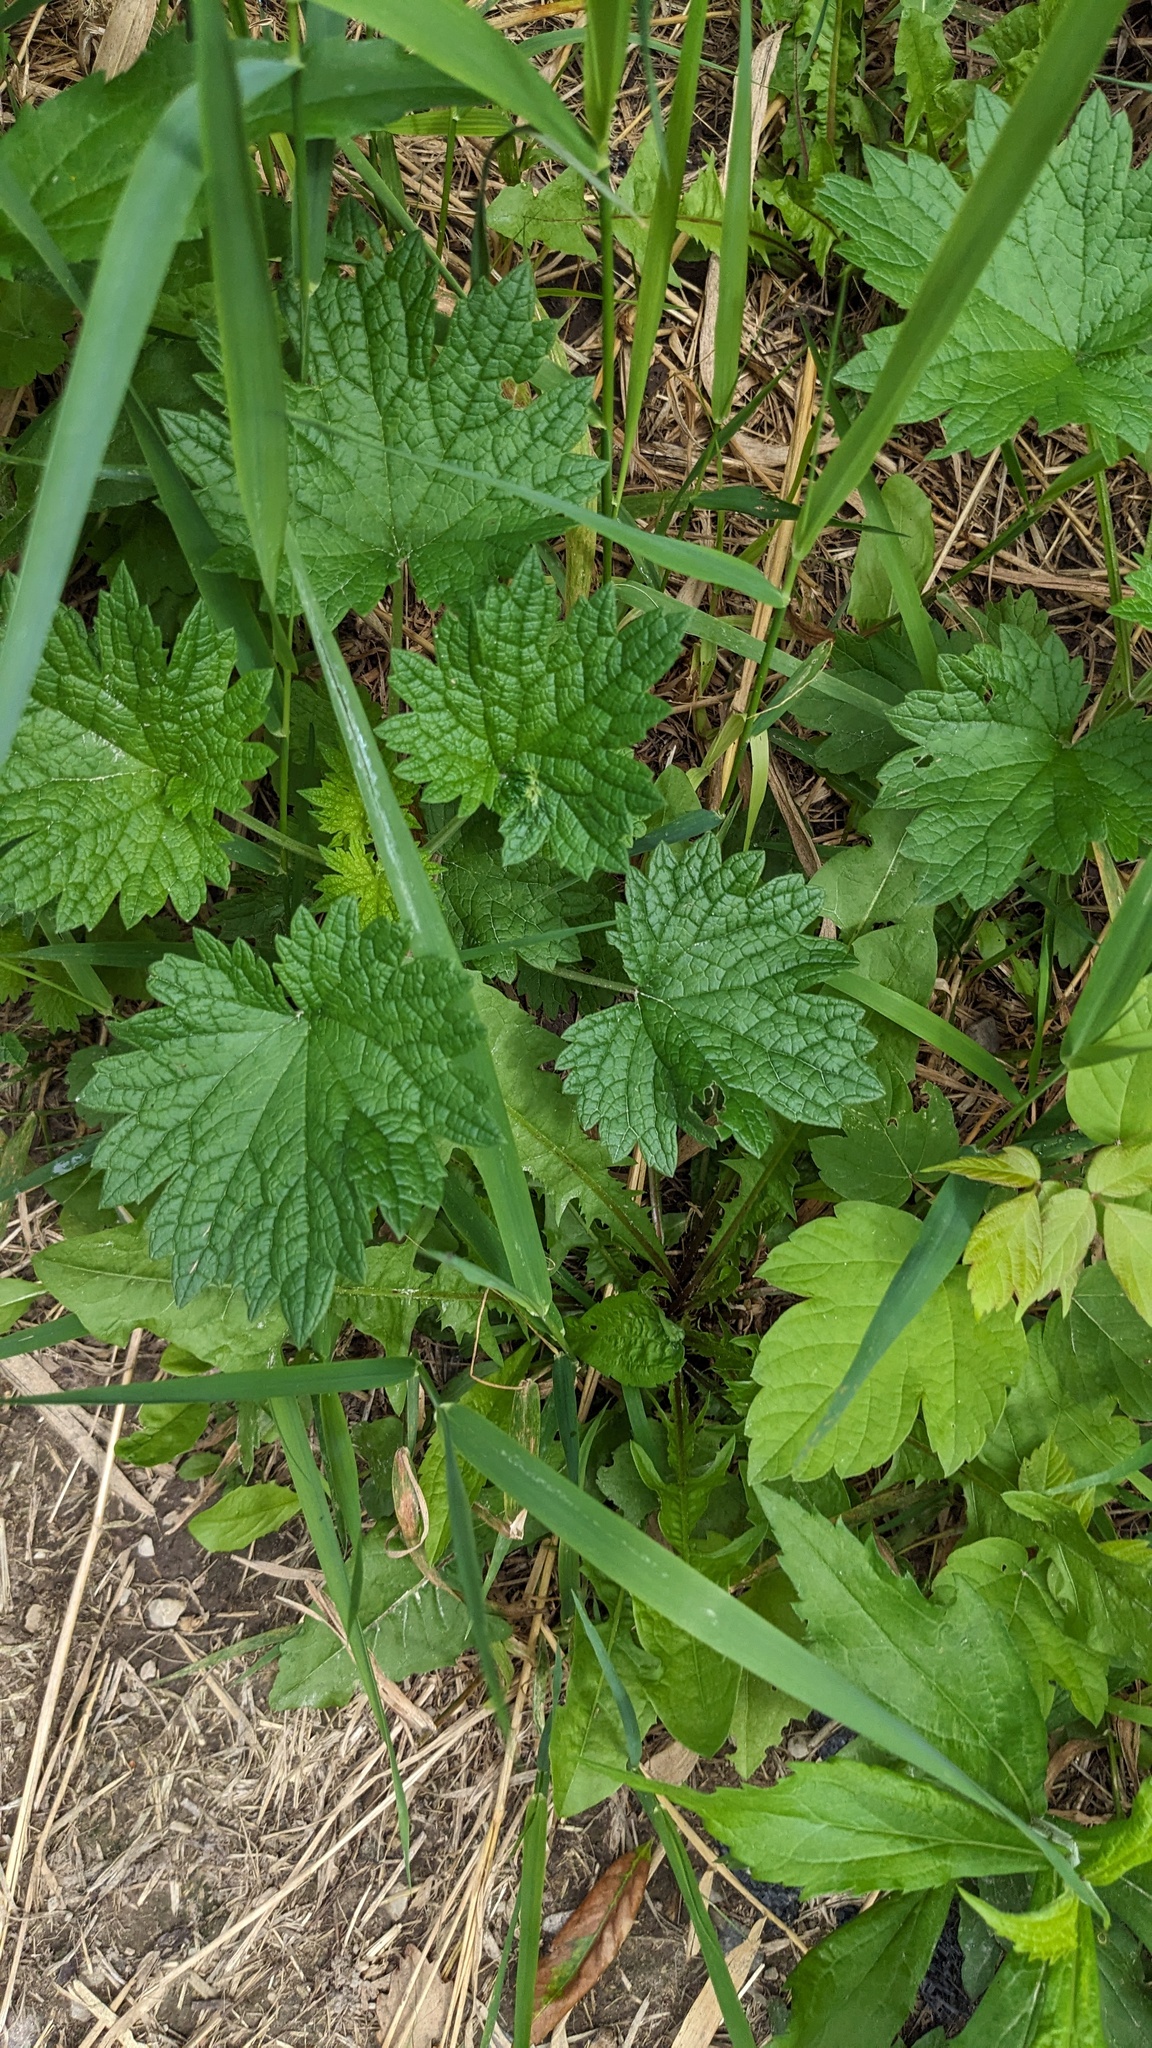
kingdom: Plantae
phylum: Tracheophyta
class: Magnoliopsida
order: Lamiales
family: Lamiaceae
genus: Leonurus
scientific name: Leonurus cardiaca
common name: Motherwort
